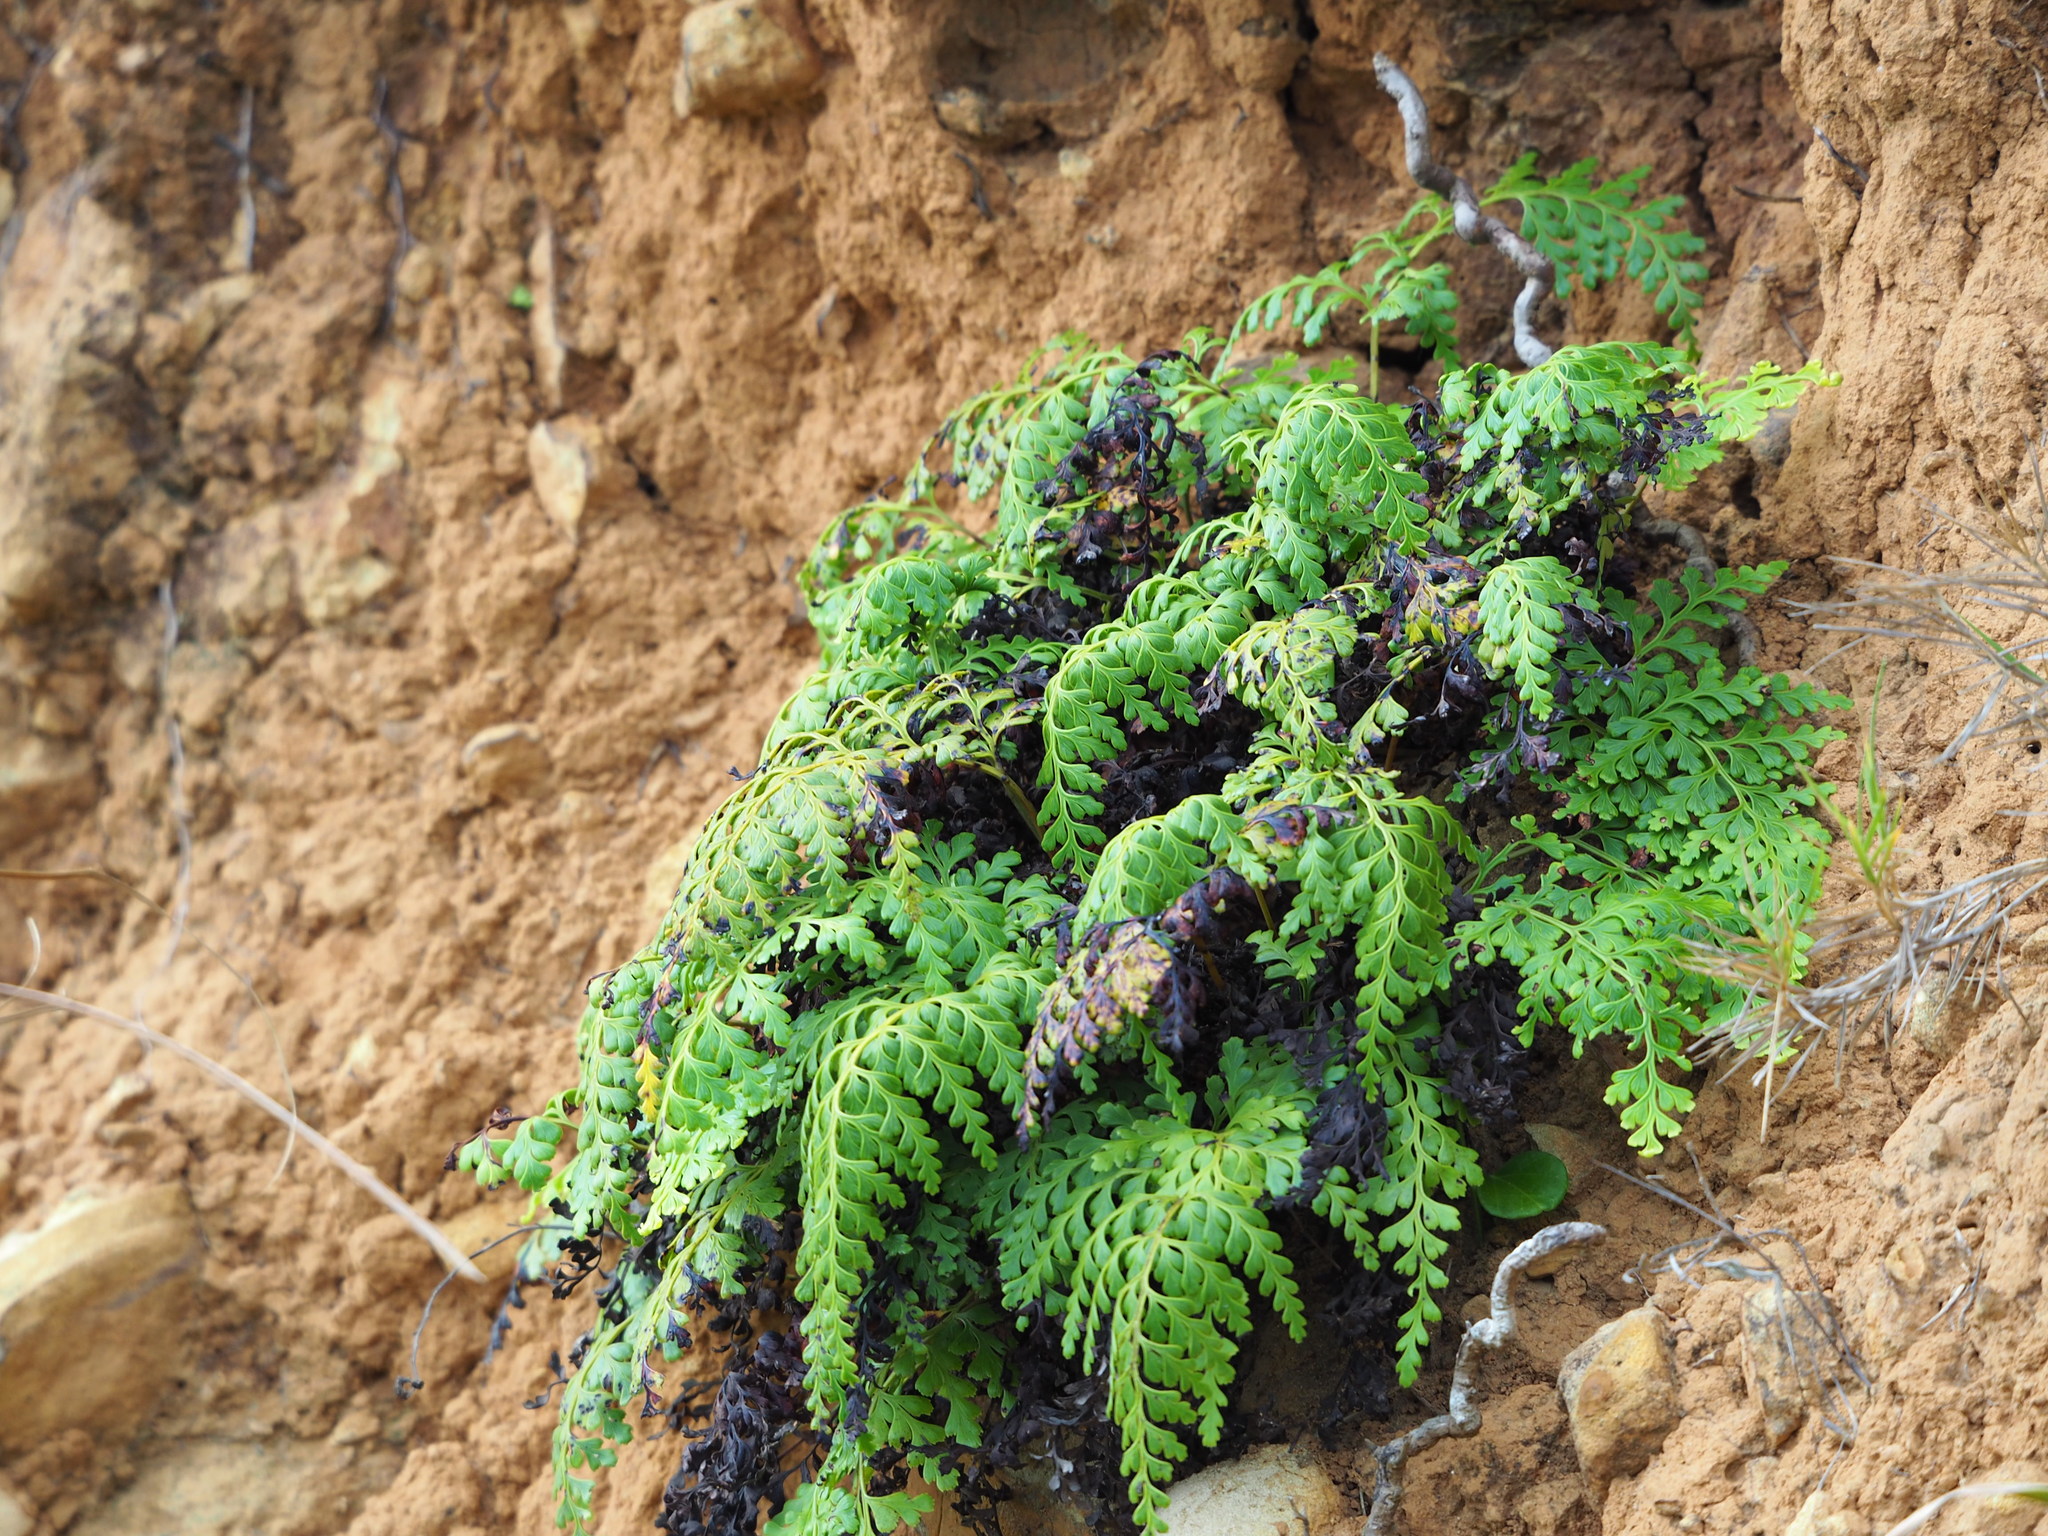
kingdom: Plantae
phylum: Tracheophyta
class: Polypodiopsida
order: Polypodiales
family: Lindsaeaceae
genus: Odontosoria
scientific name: Odontosoria biflora
